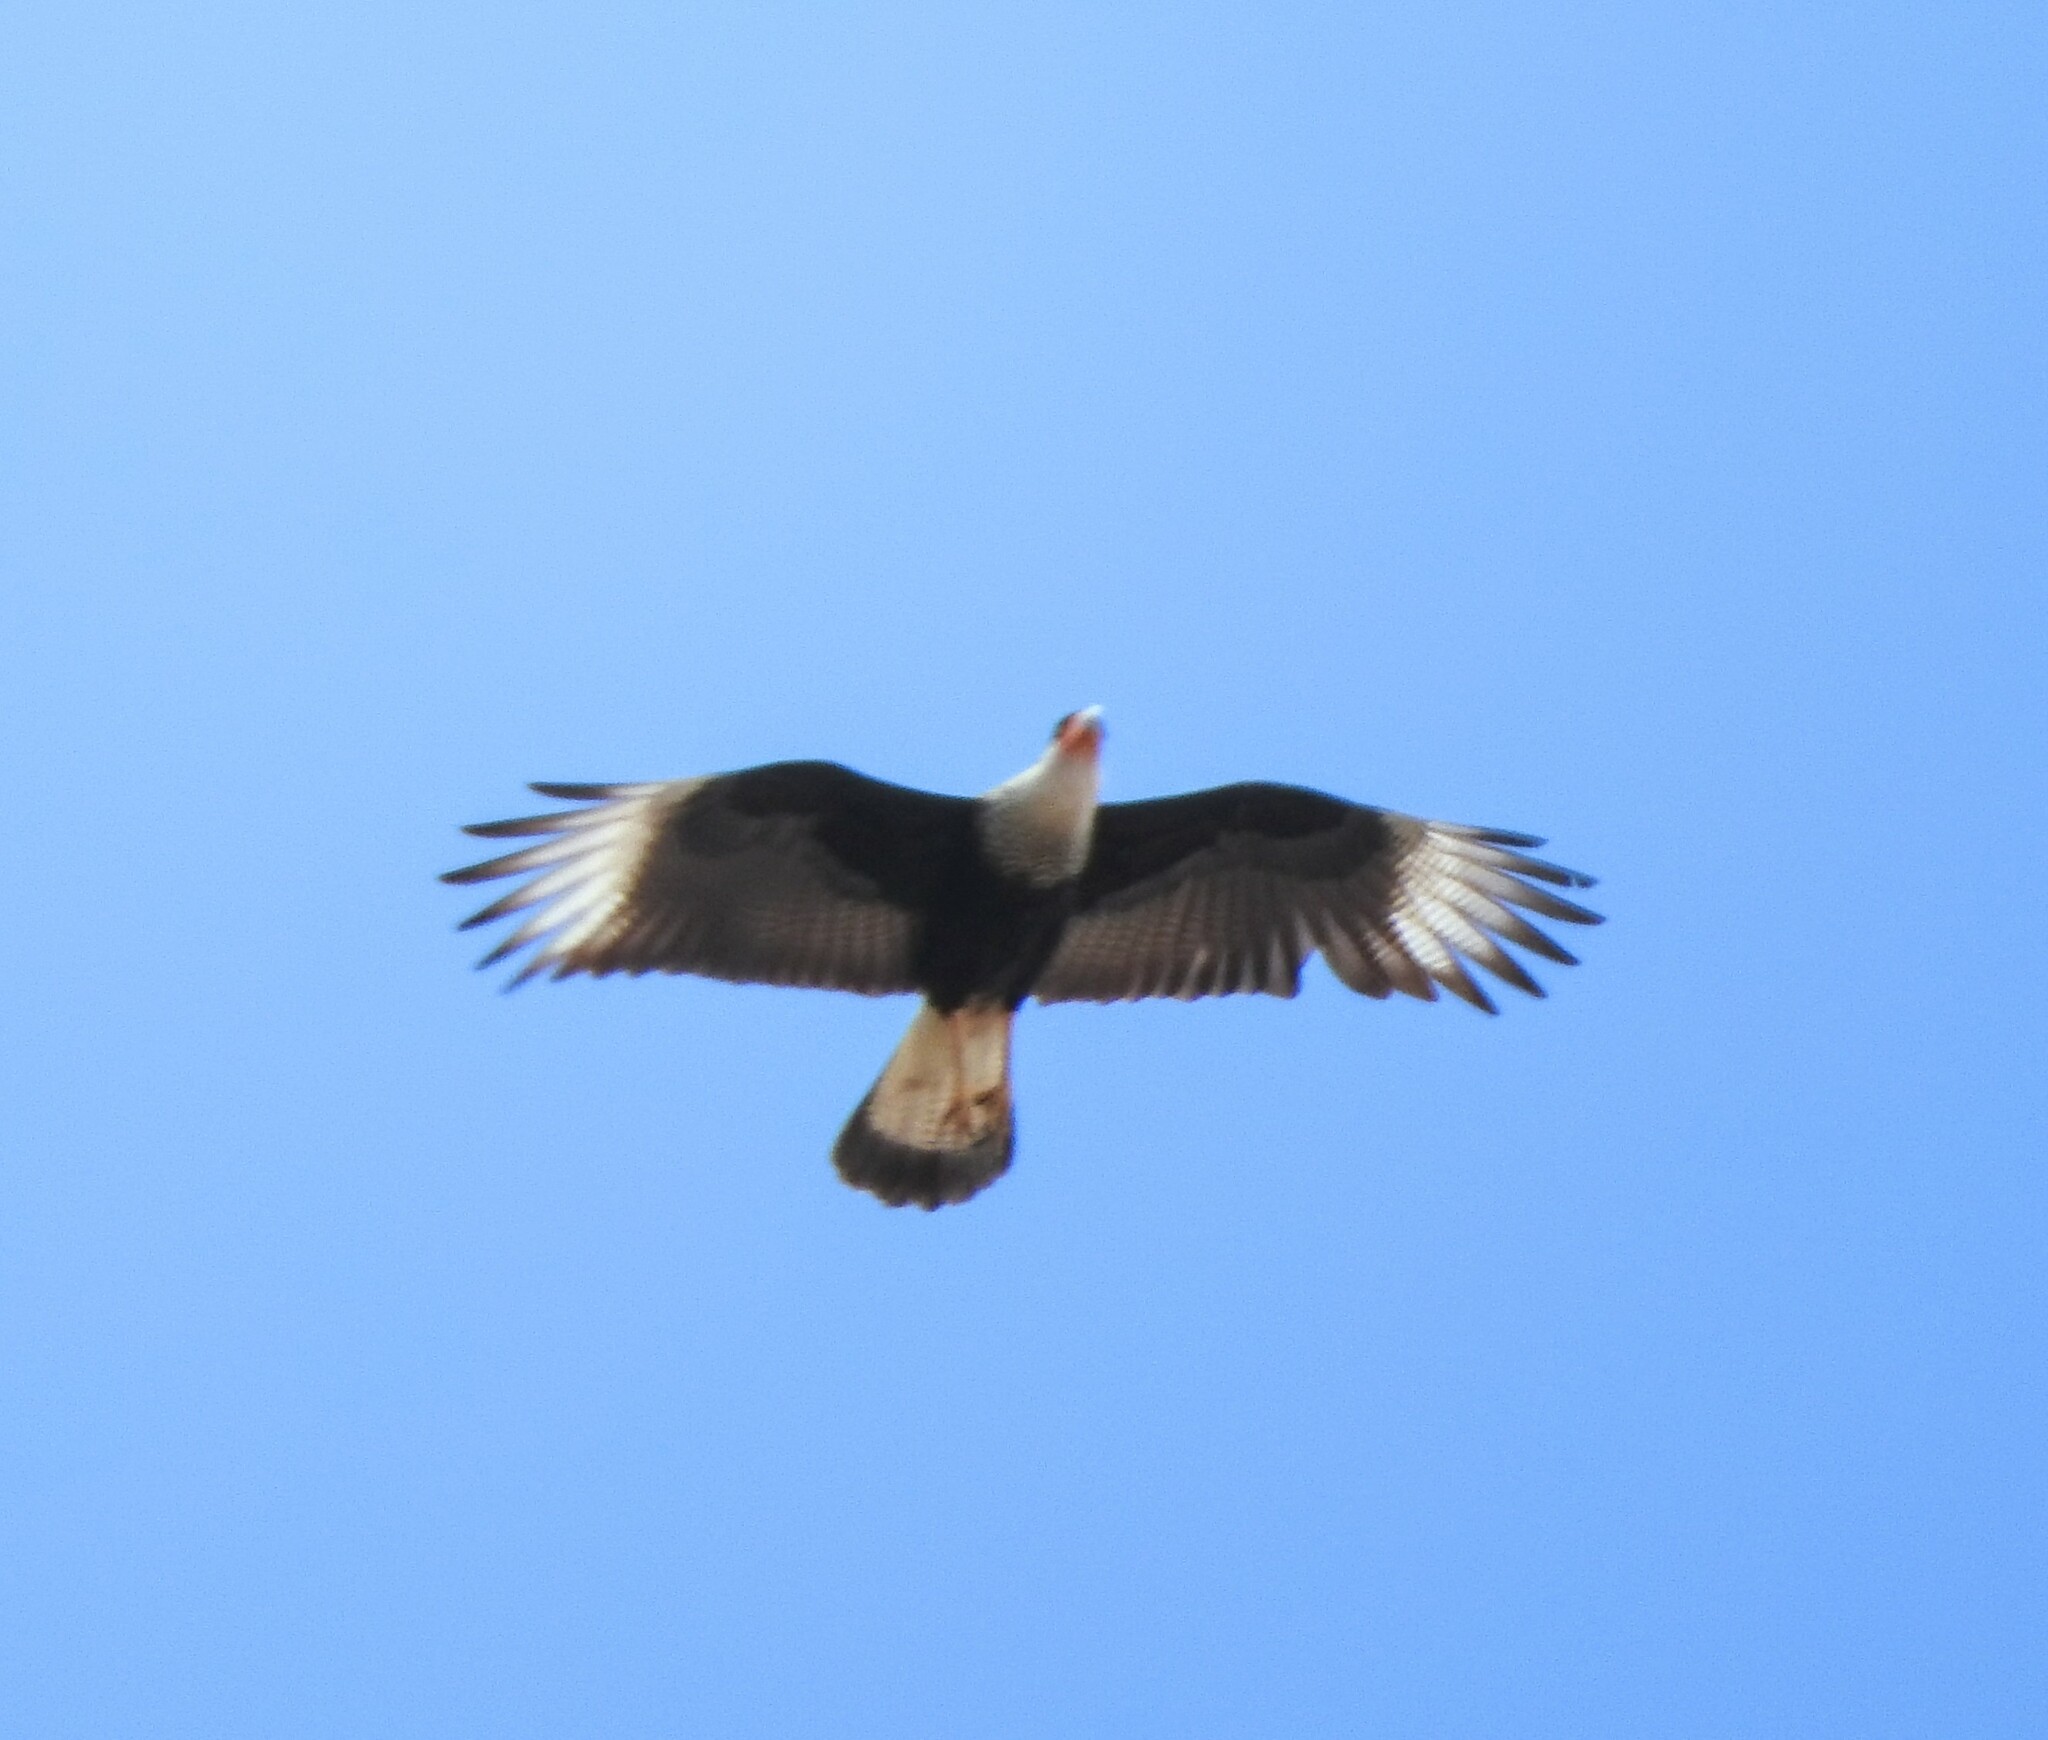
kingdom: Animalia
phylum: Chordata
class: Aves
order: Falconiformes
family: Falconidae
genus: Caracara
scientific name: Caracara plancus
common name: Southern caracara
